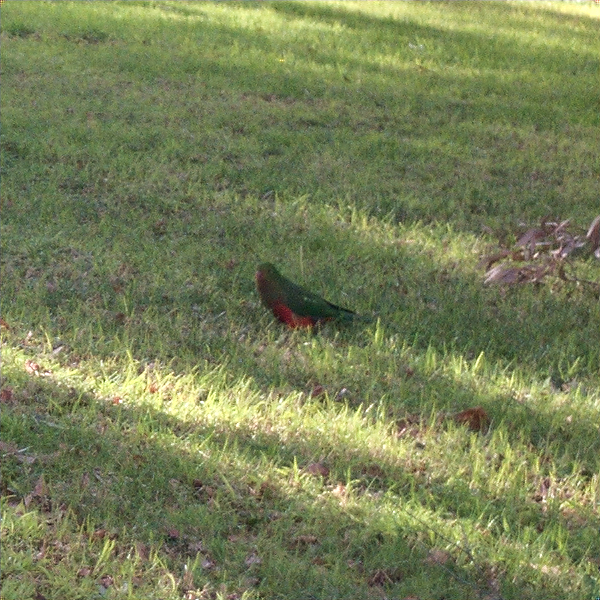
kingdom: Animalia
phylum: Chordata
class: Aves
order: Psittaciformes
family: Psittacidae
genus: Alisterus
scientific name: Alisterus scapularis
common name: Australian king parrot
